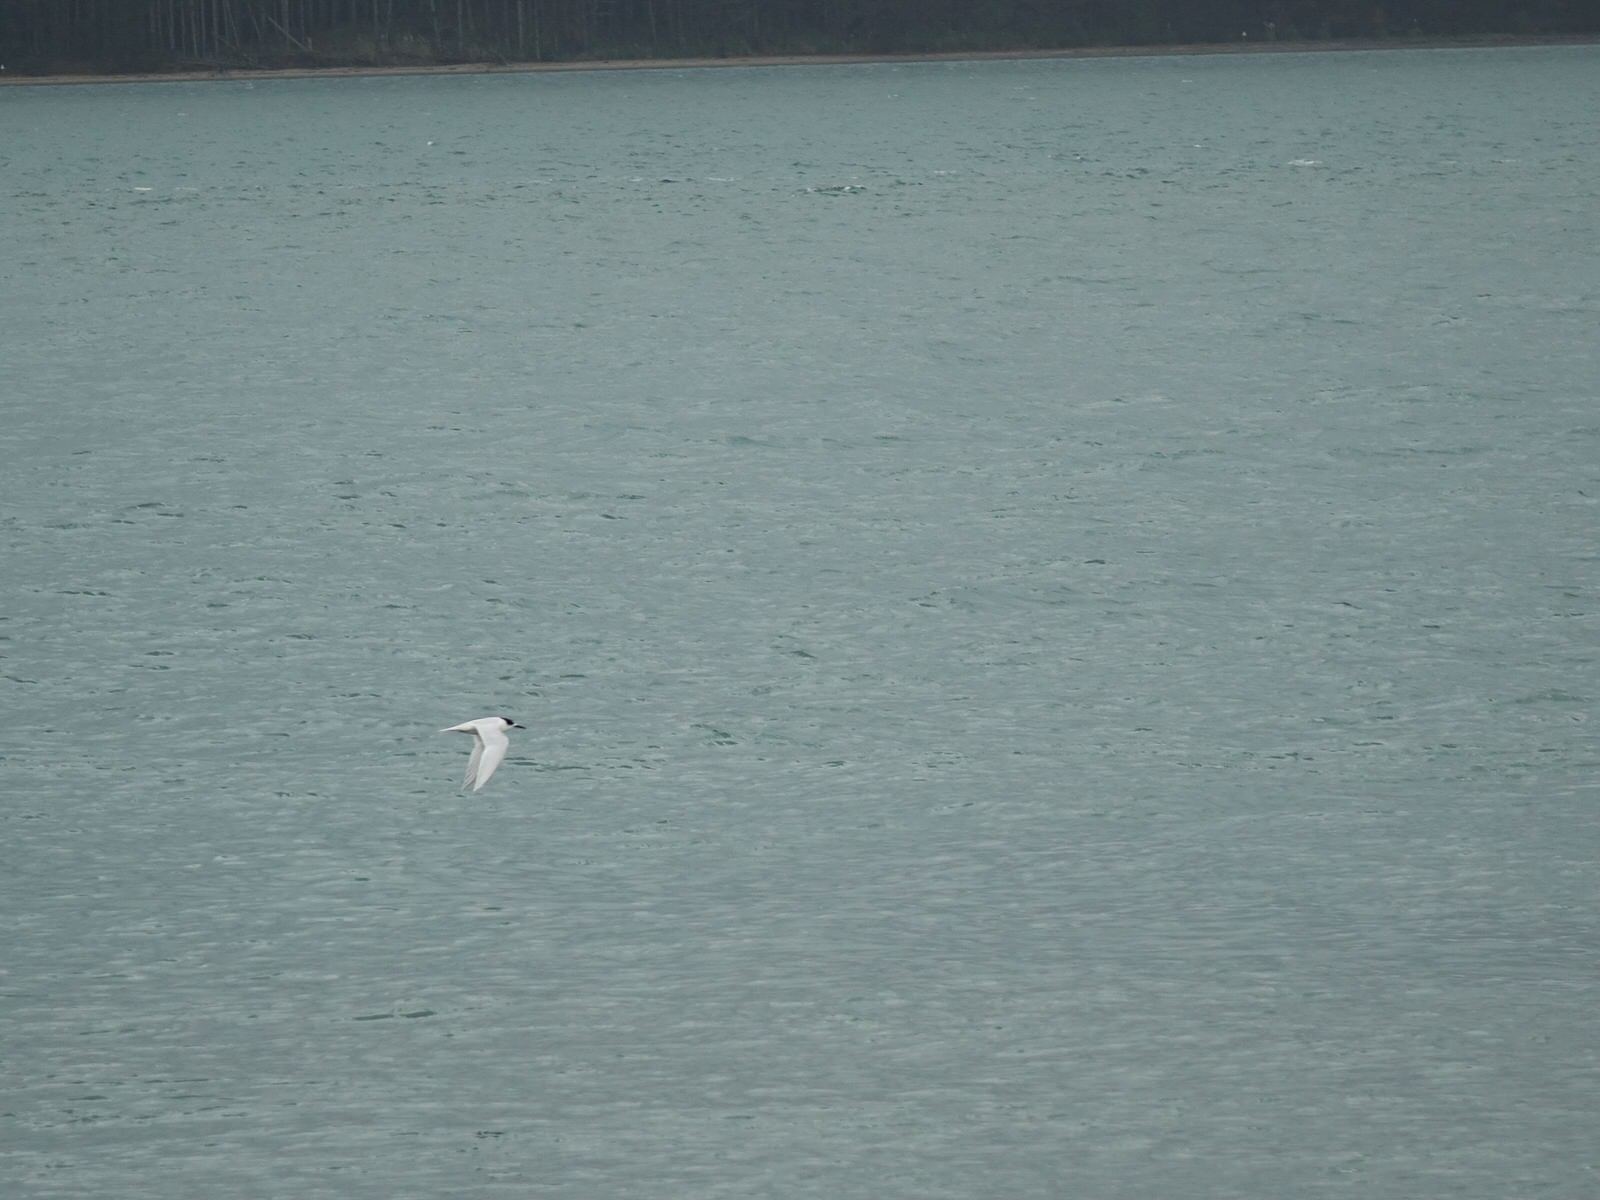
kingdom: Animalia
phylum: Chordata
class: Aves
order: Charadriiformes
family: Laridae
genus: Sterna
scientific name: Sterna striata
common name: White-fronted tern
